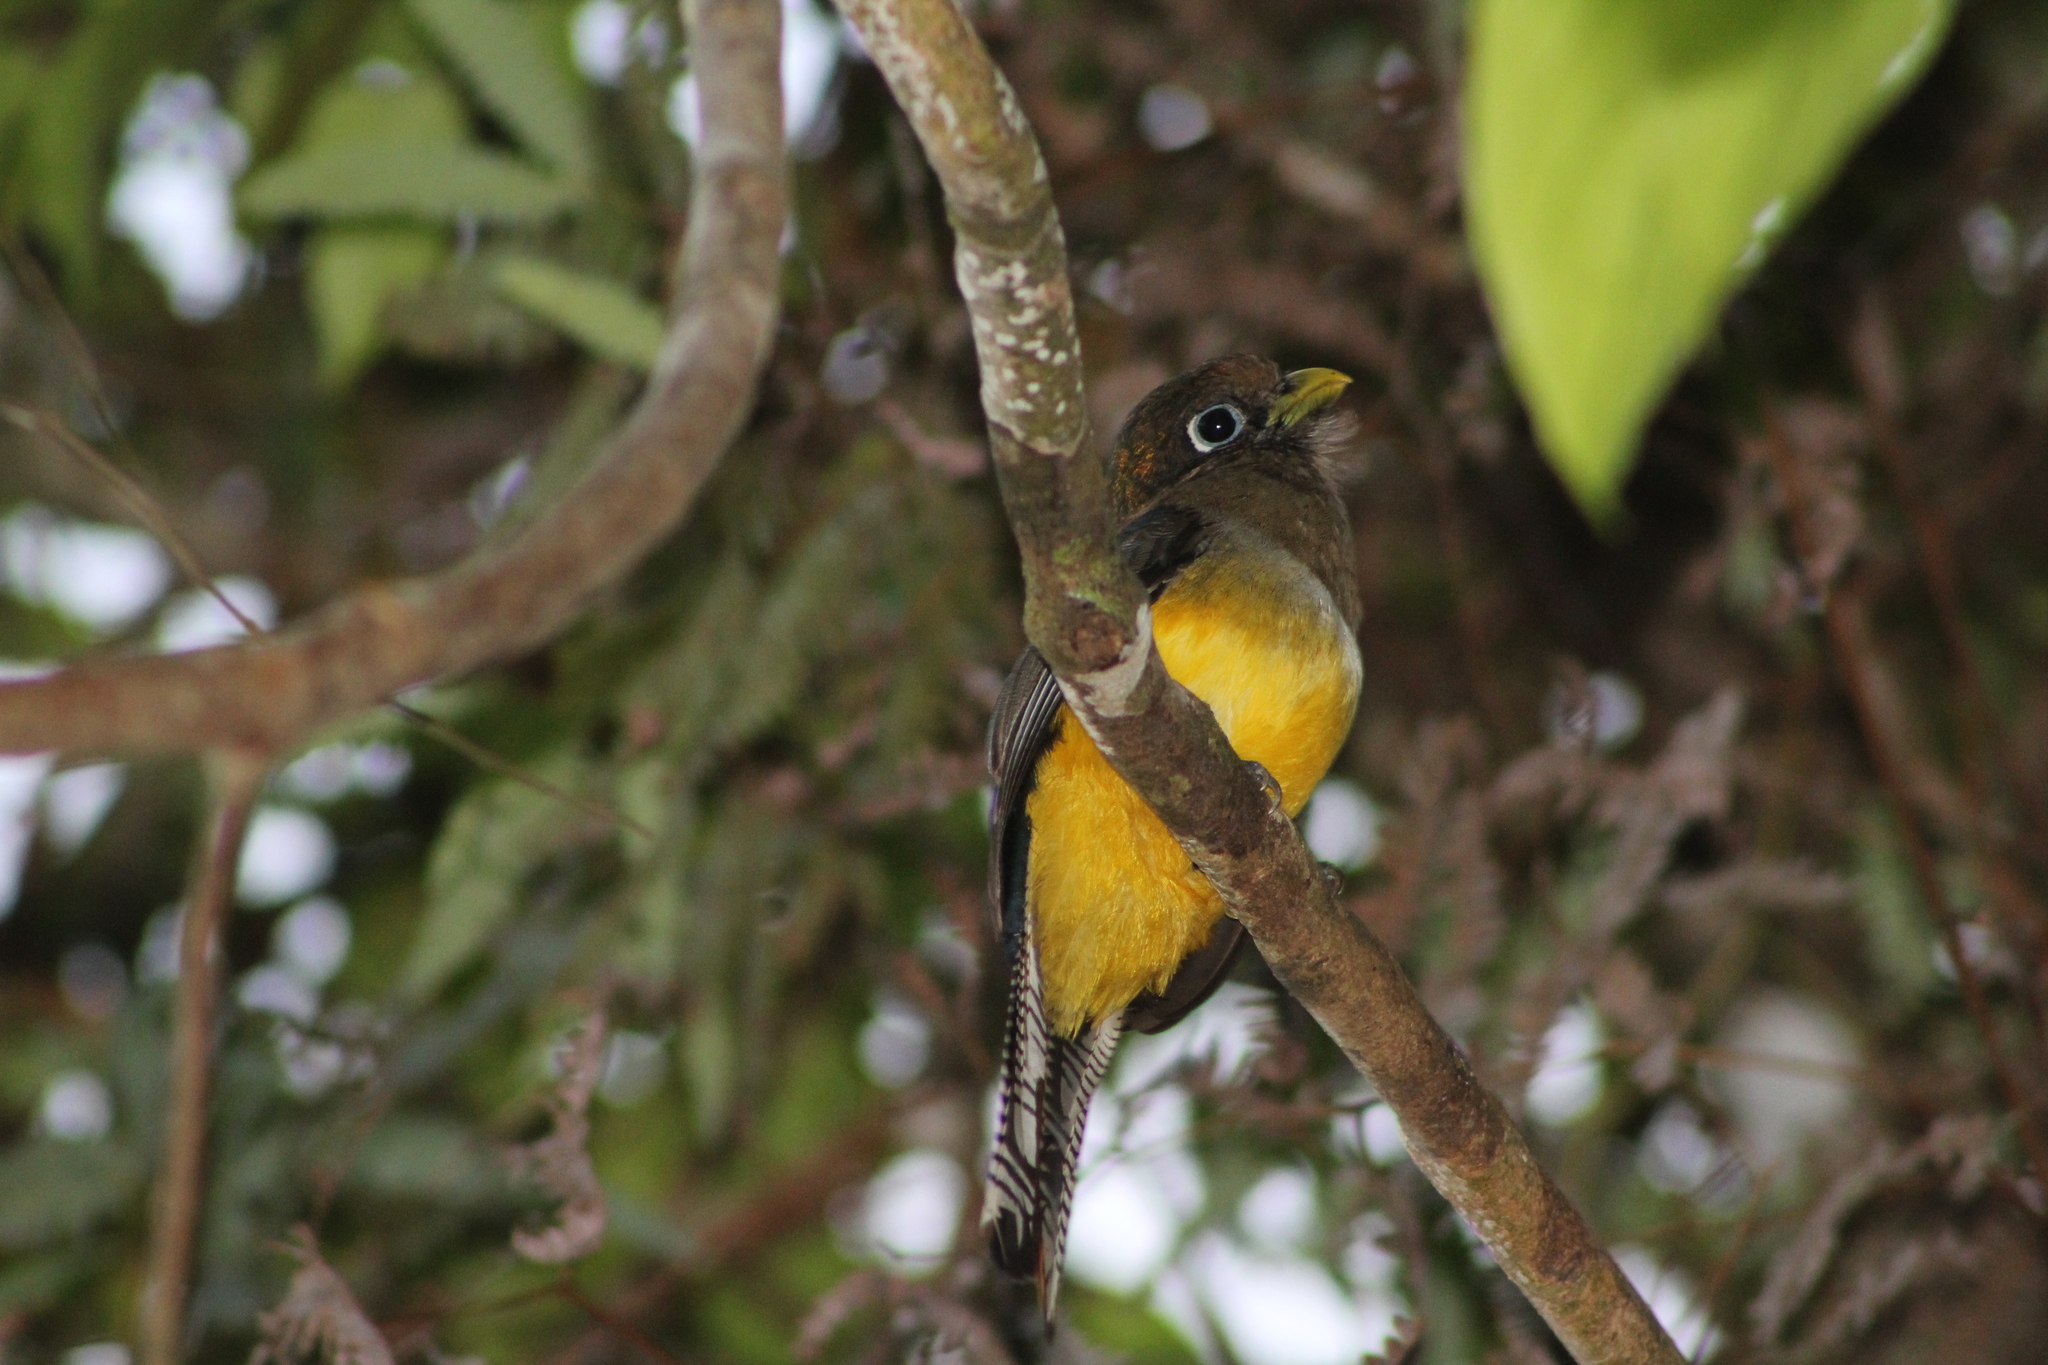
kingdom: Animalia
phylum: Chordata
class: Aves
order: Trogoniformes
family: Trogonidae
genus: Trogon
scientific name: Trogon rufus
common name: Black-throated trogon
